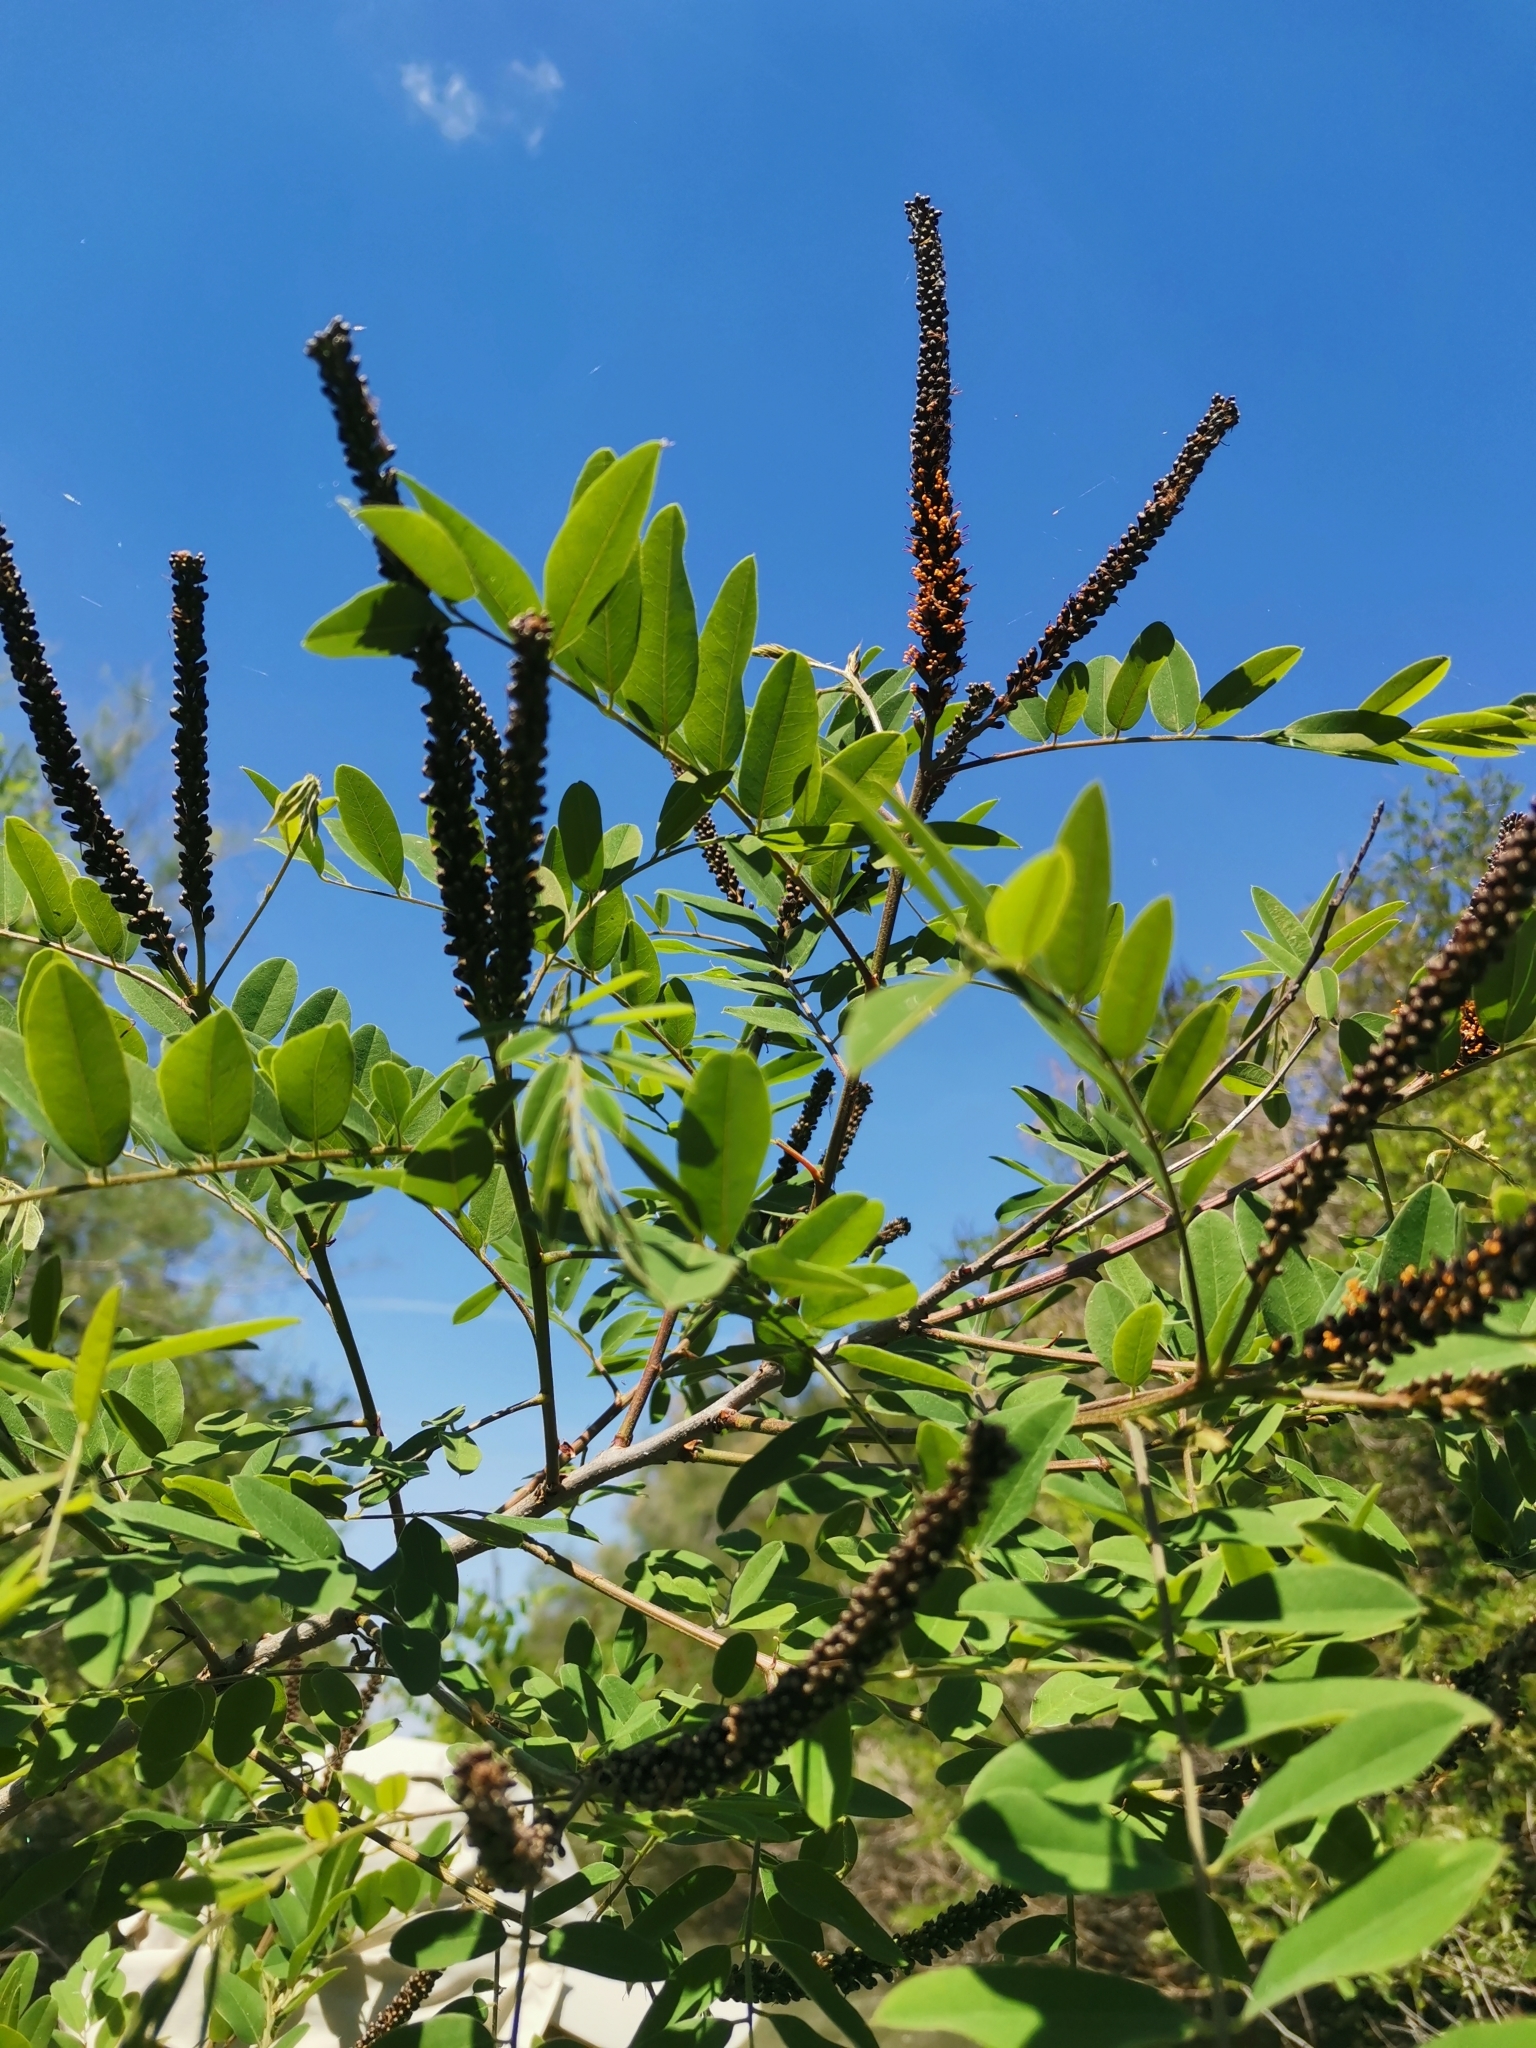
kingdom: Plantae
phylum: Tracheophyta
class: Magnoliopsida
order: Fabales
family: Fabaceae
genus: Amorpha
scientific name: Amorpha fruticosa
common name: False indigo
